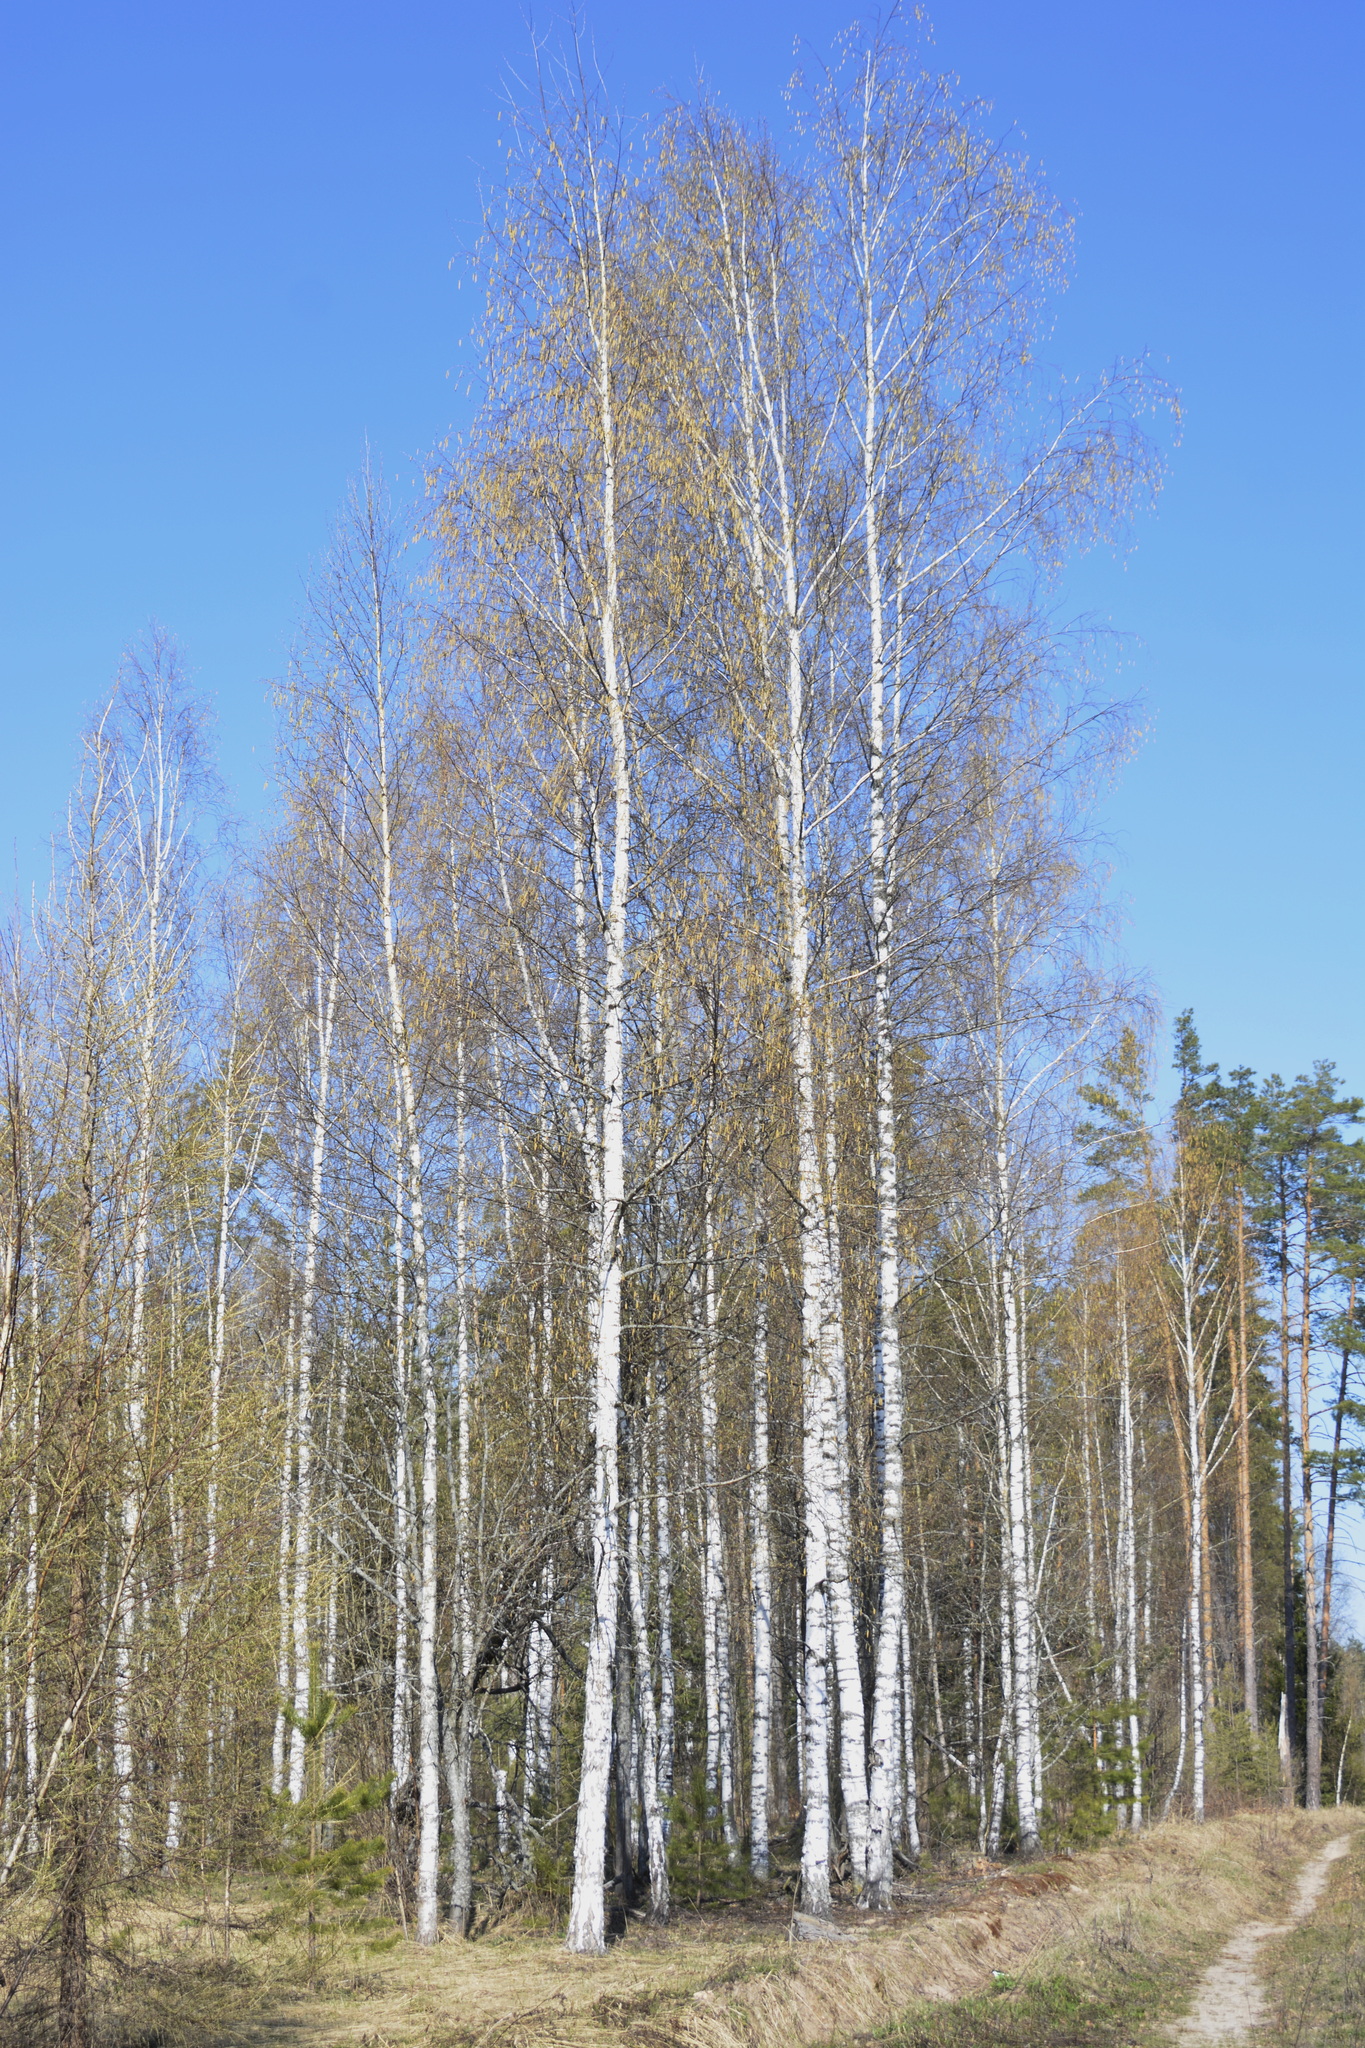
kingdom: Plantae
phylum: Tracheophyta
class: Magnoliopsida
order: Fagales
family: Betulaceae
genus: Betula
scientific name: Betula pendula
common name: Silver birch
